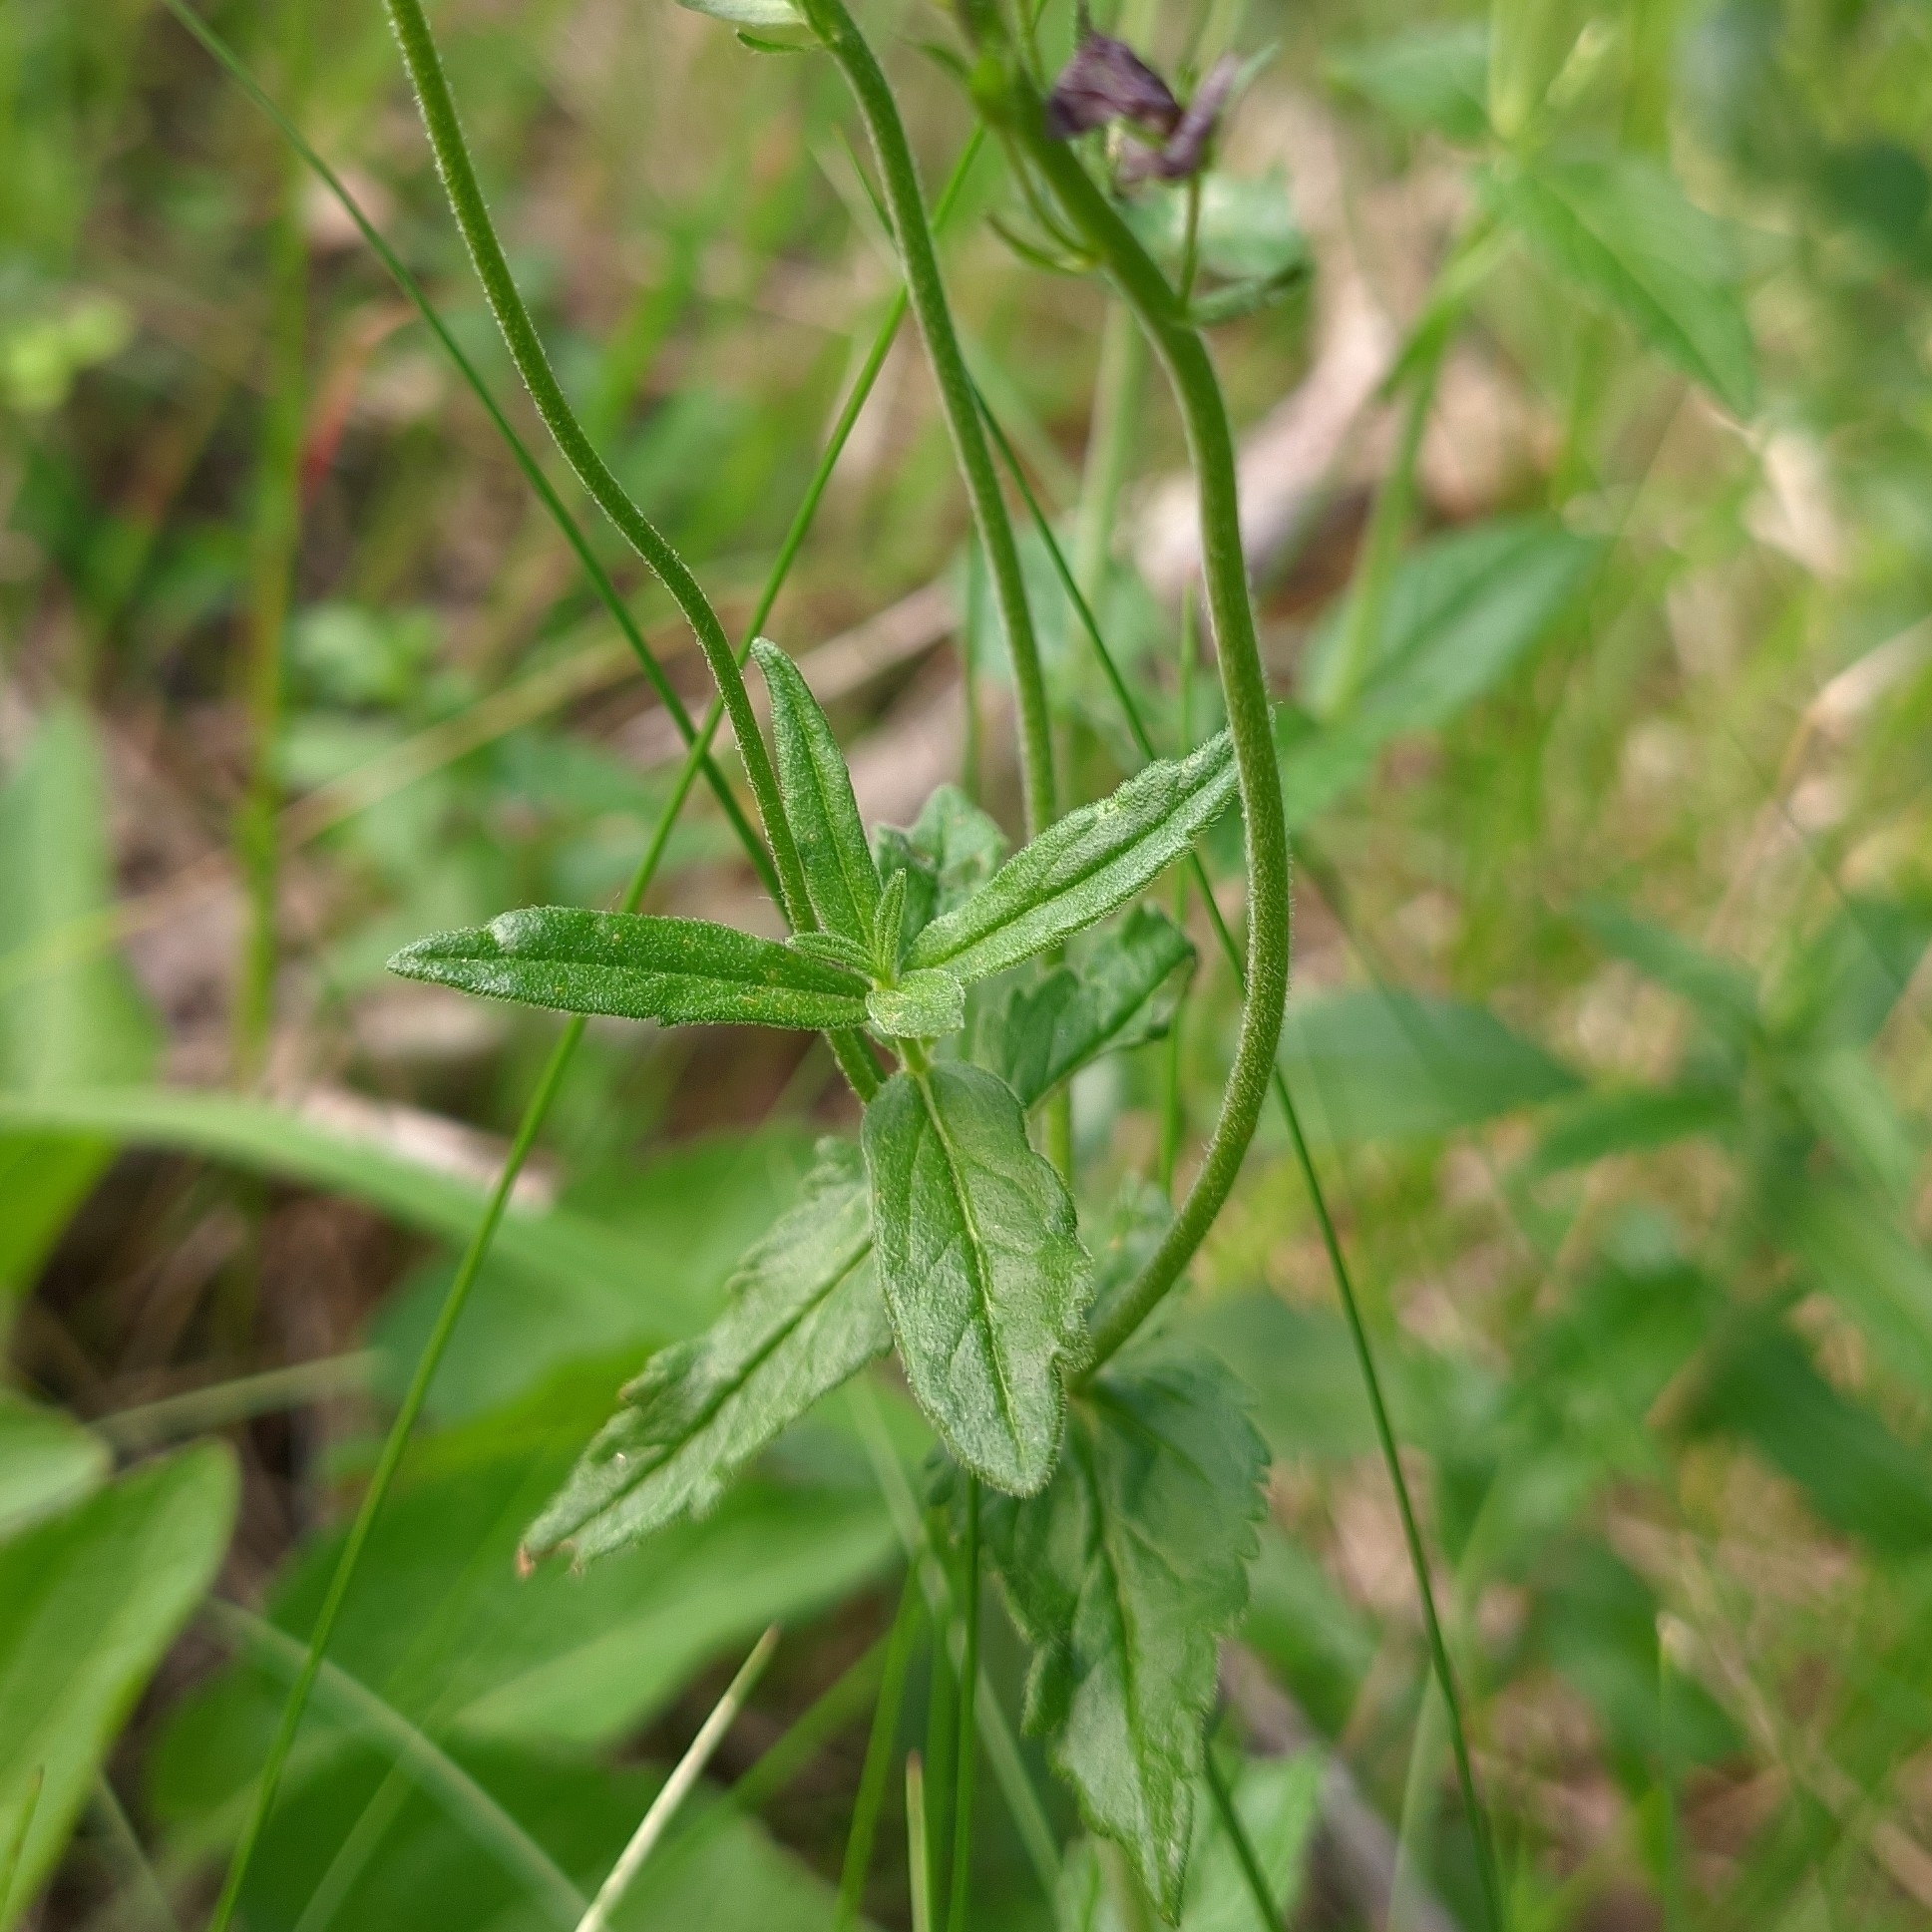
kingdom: Plantae
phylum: Tracheophyta
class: Magnoliopsida
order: Lamiales
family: Plantaginaceae
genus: Veronica
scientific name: Veronica teucrium
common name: Large speedwell
